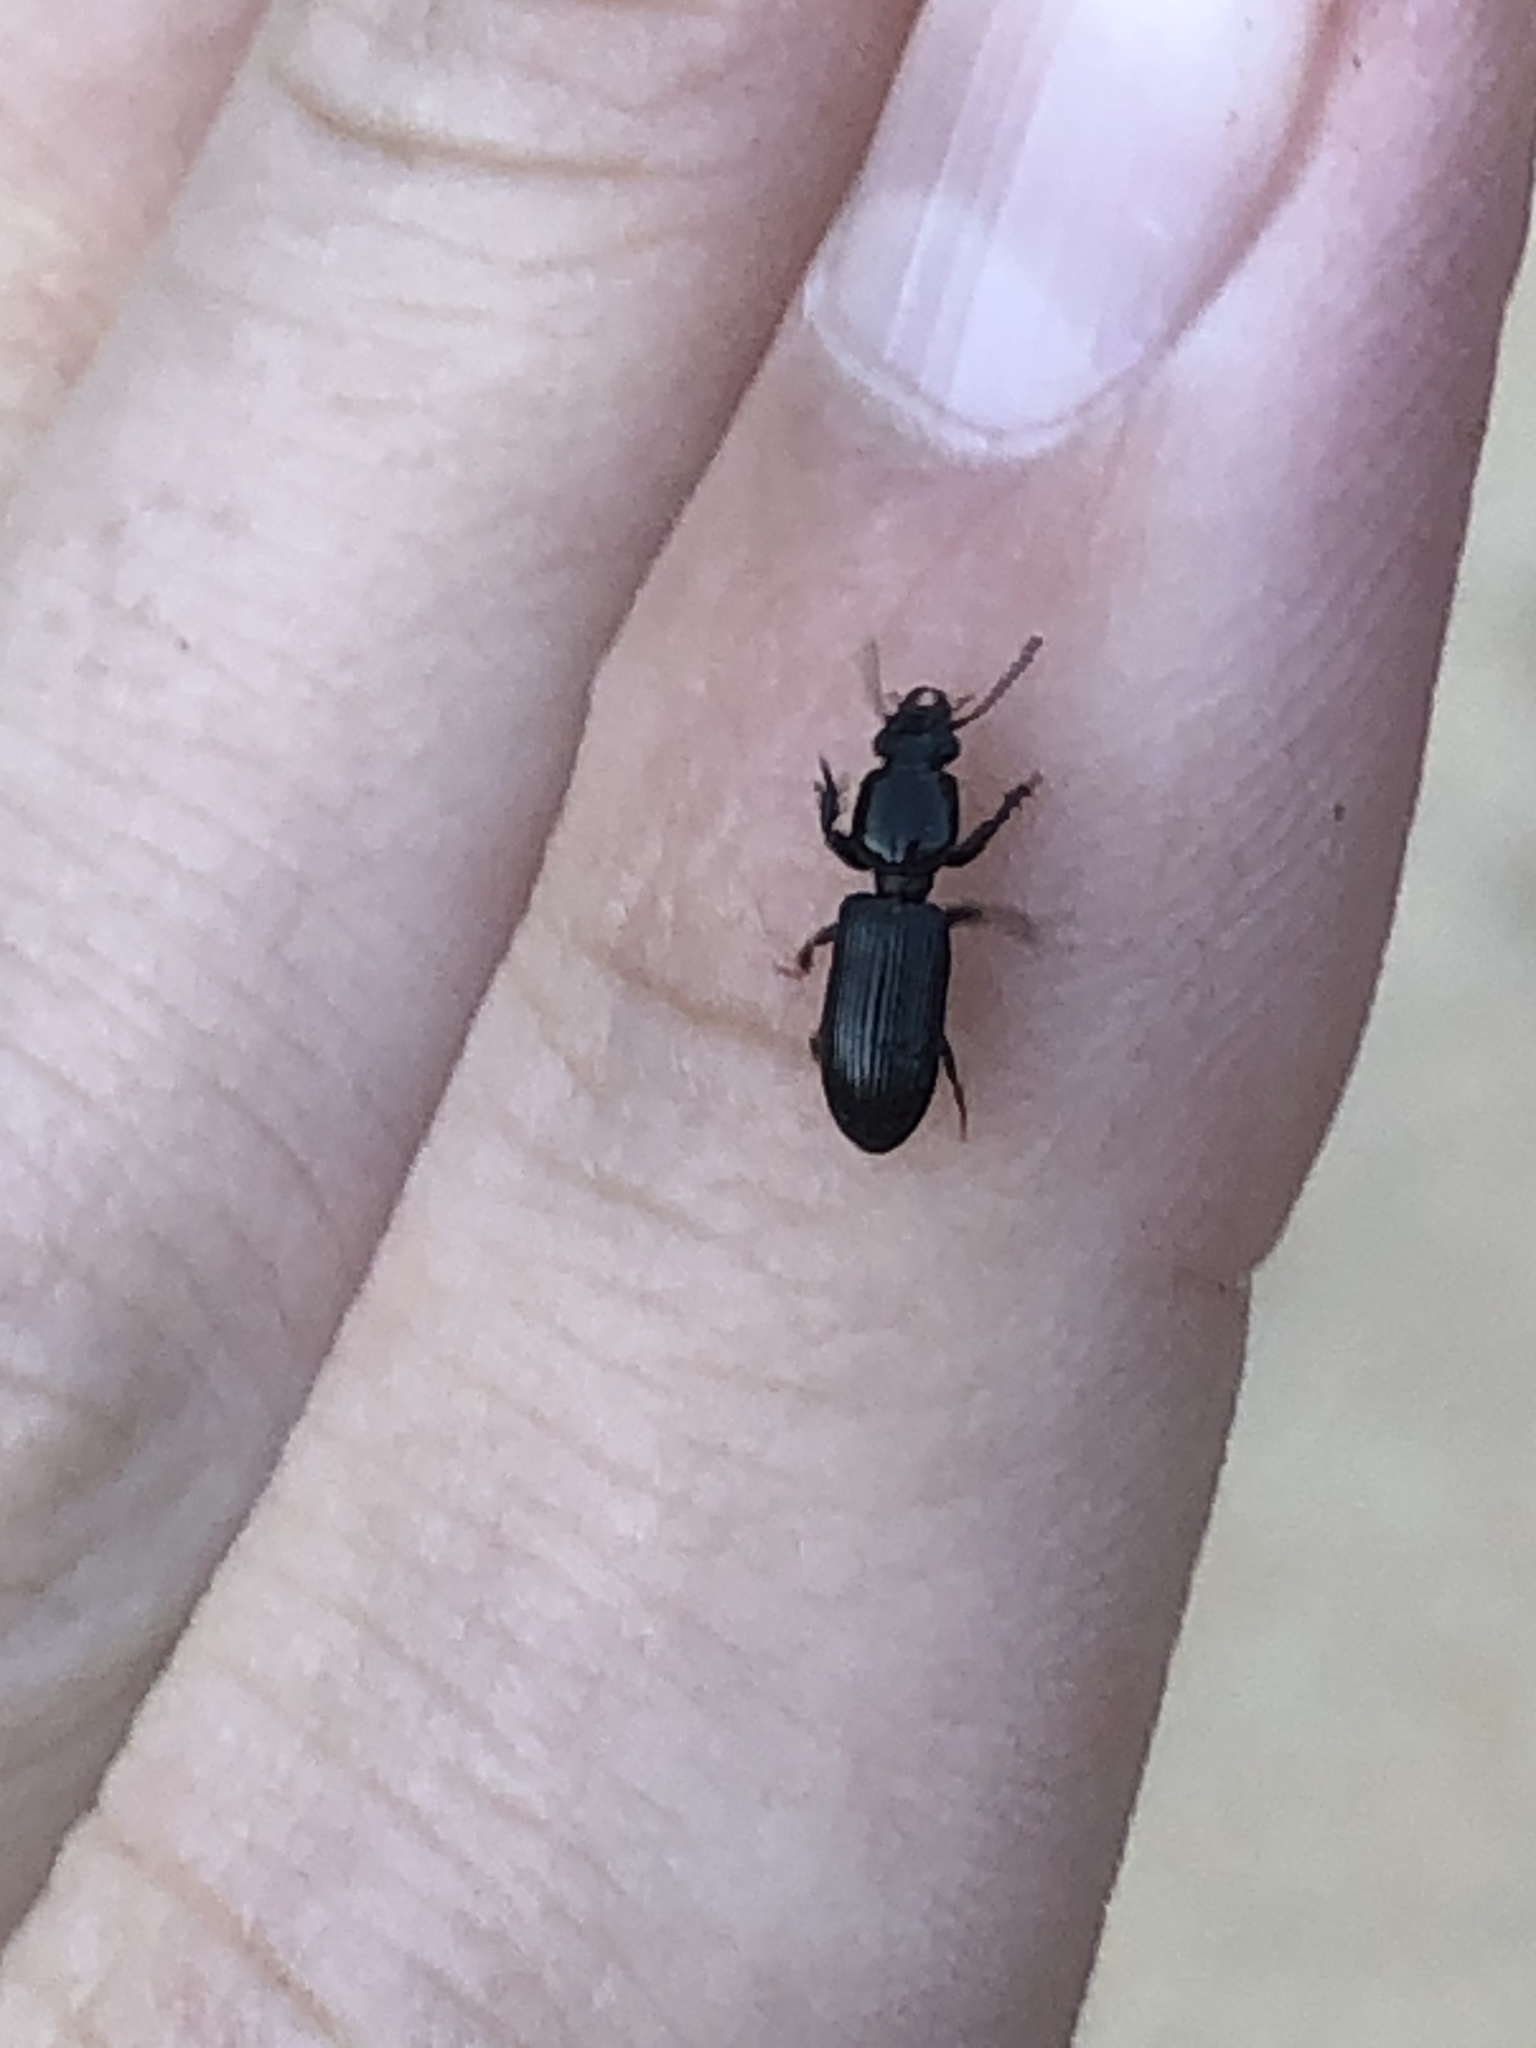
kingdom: Animalia
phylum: Arthropoda
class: Insecta
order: Coleoptera
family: Carabidae
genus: Semiclivina
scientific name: Semiclivina dentipes
